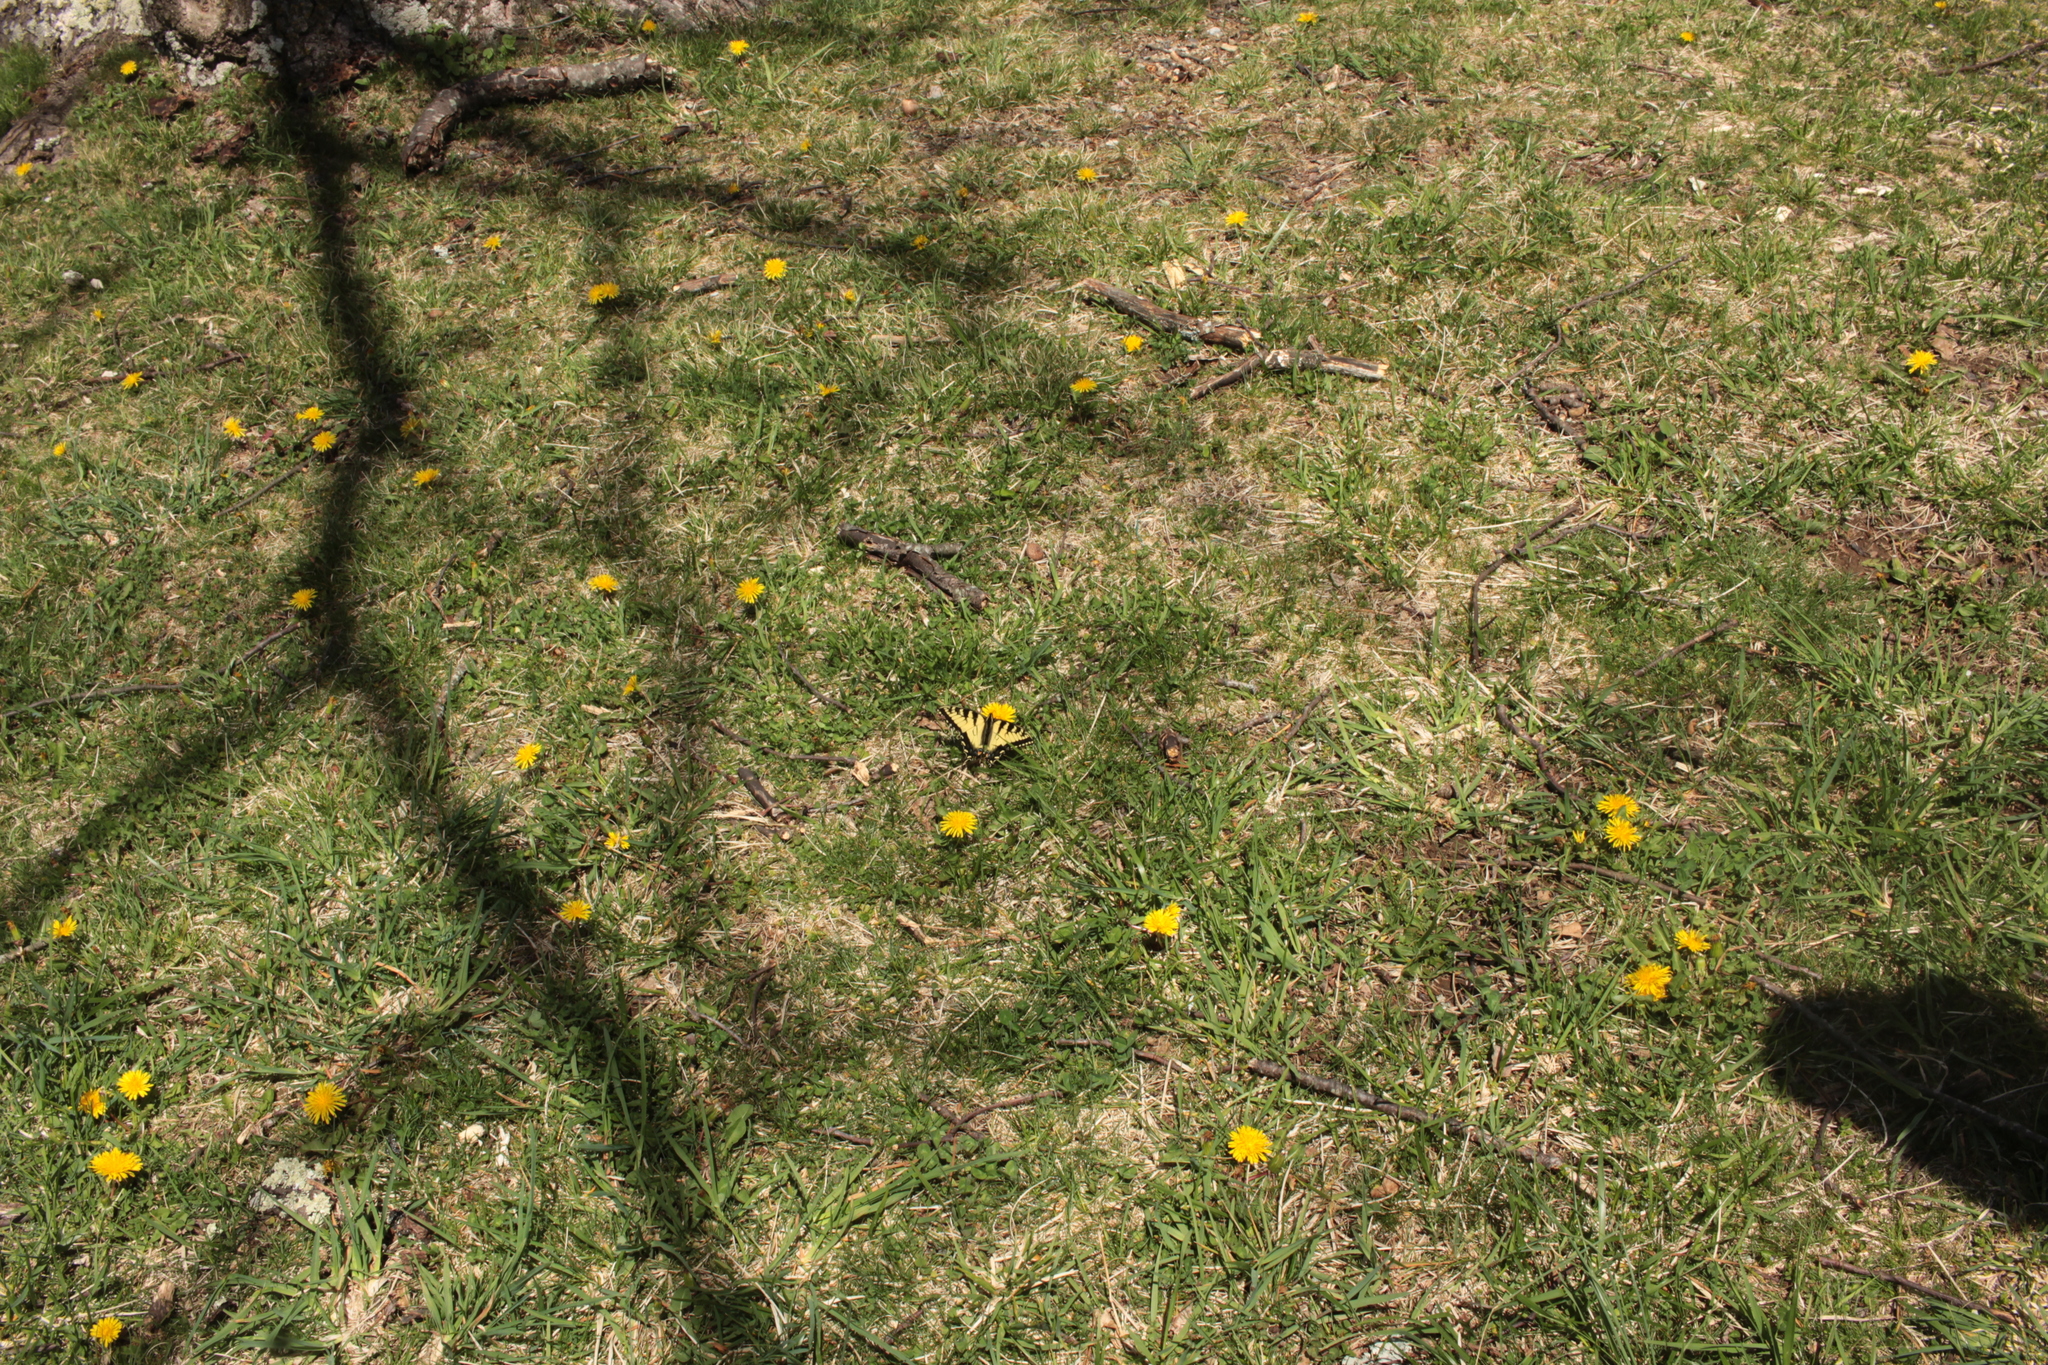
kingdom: Plantae
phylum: Tracheophyta
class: Magnoliopsida
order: Asterales
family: Asteraceae
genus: Taraxacum
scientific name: Taraxacum
